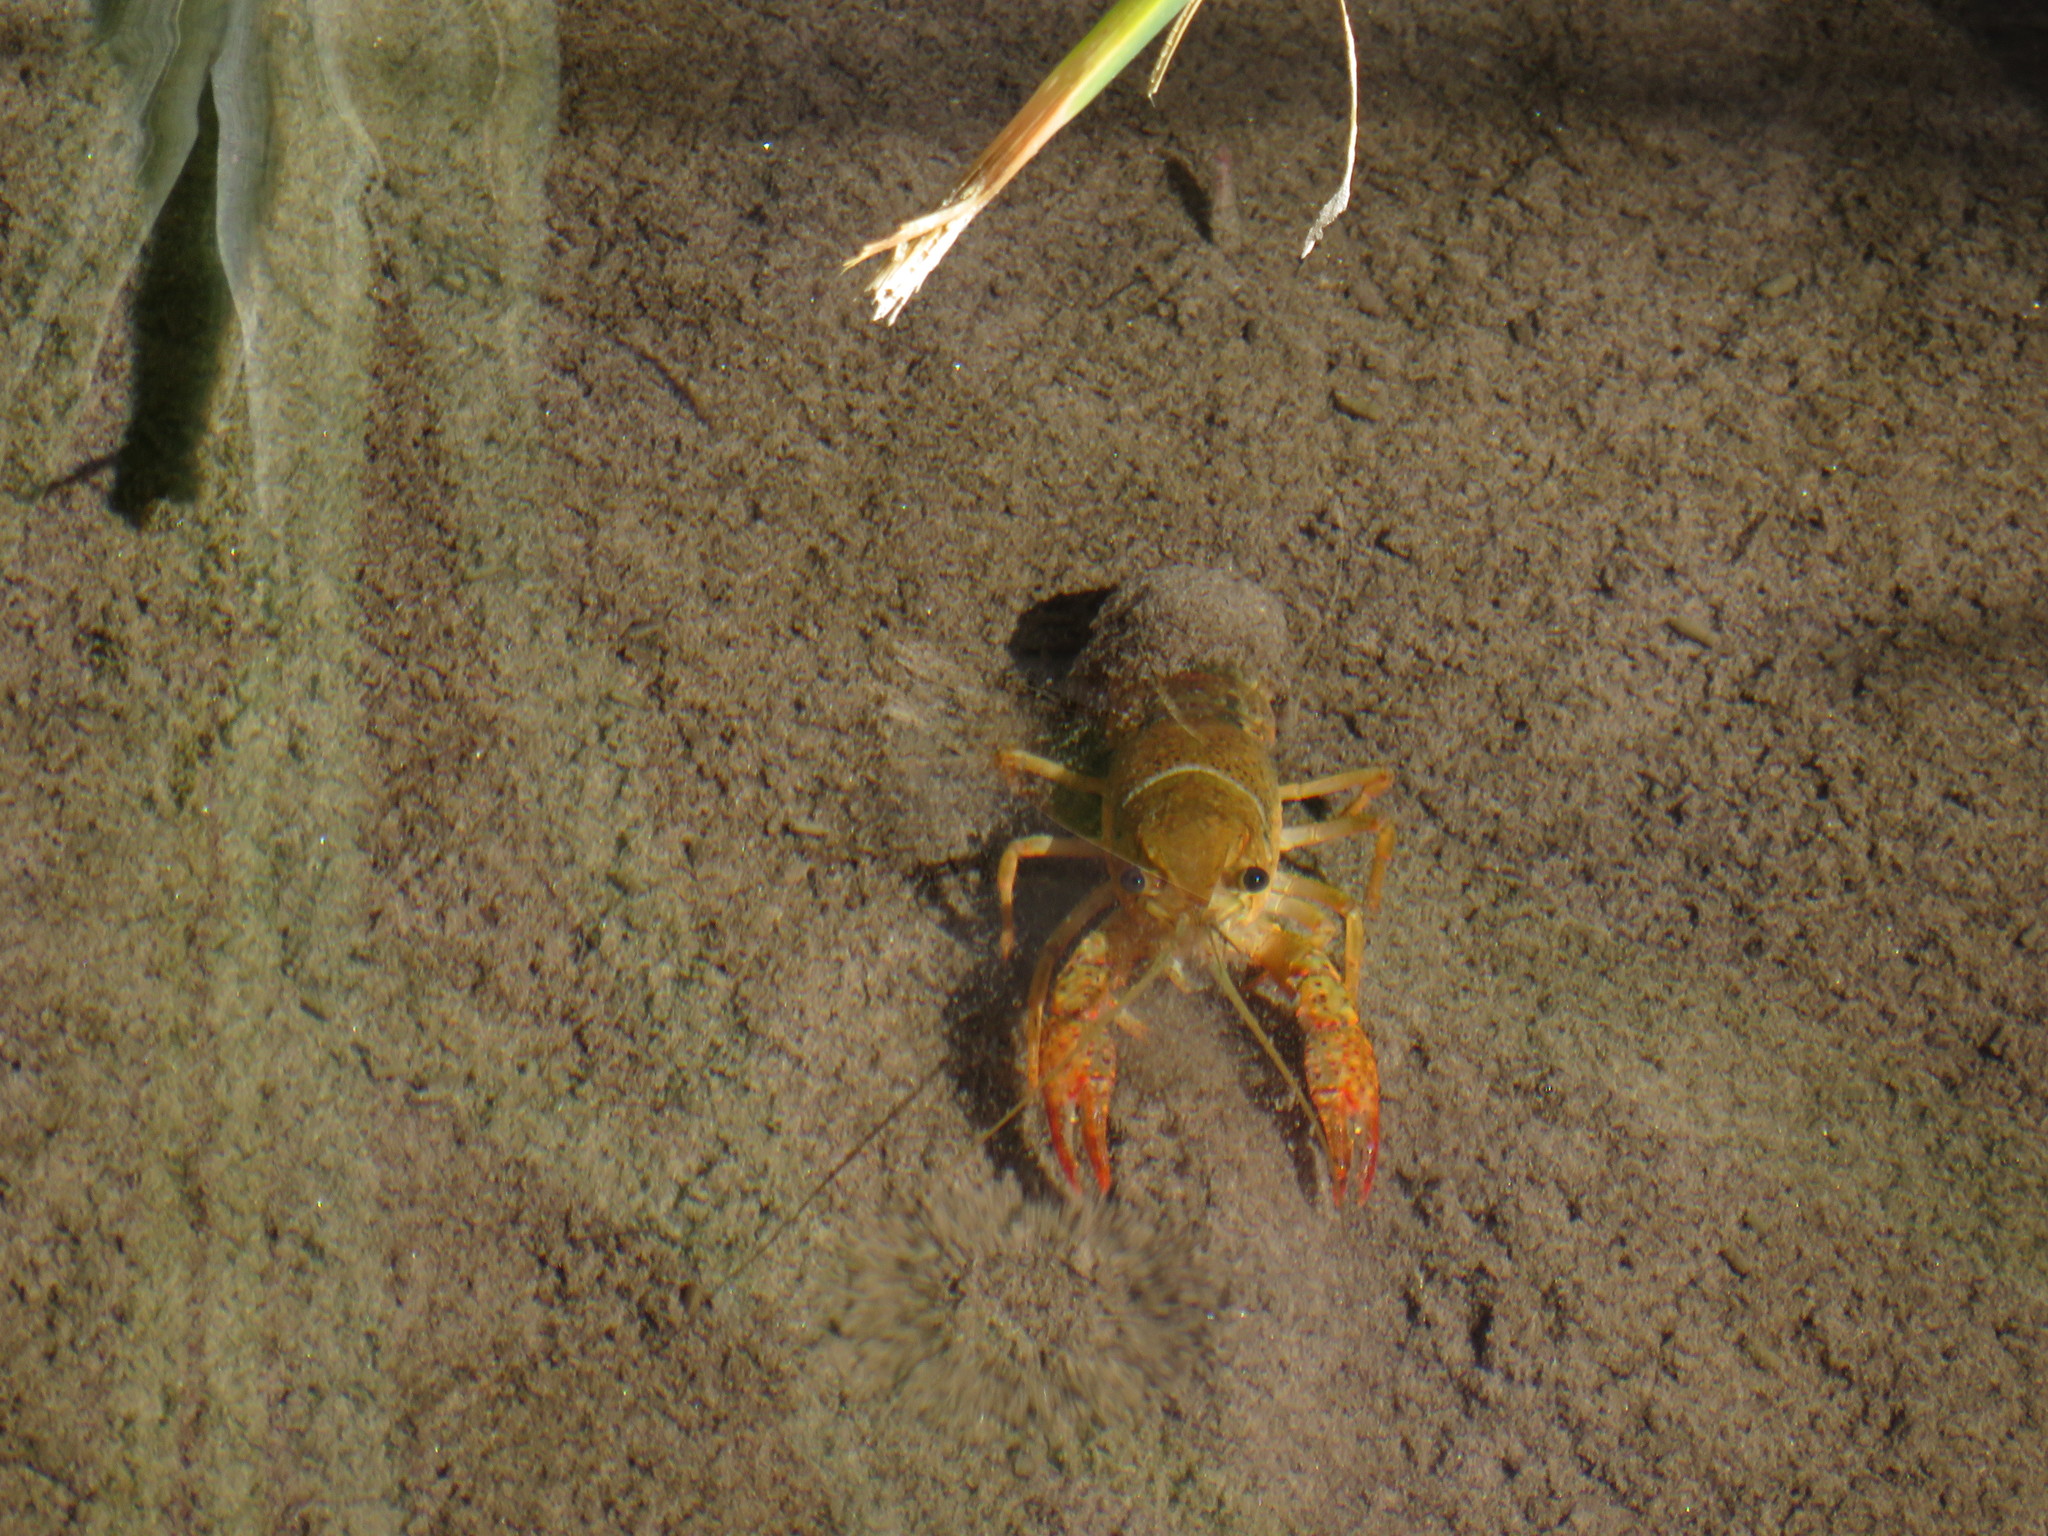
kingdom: Animalia
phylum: Arthropoda
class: Malacostraca
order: Decapoda
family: Cambaridae
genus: Procambarus
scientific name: Procambarus clarkii
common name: Red swamp crayfish
